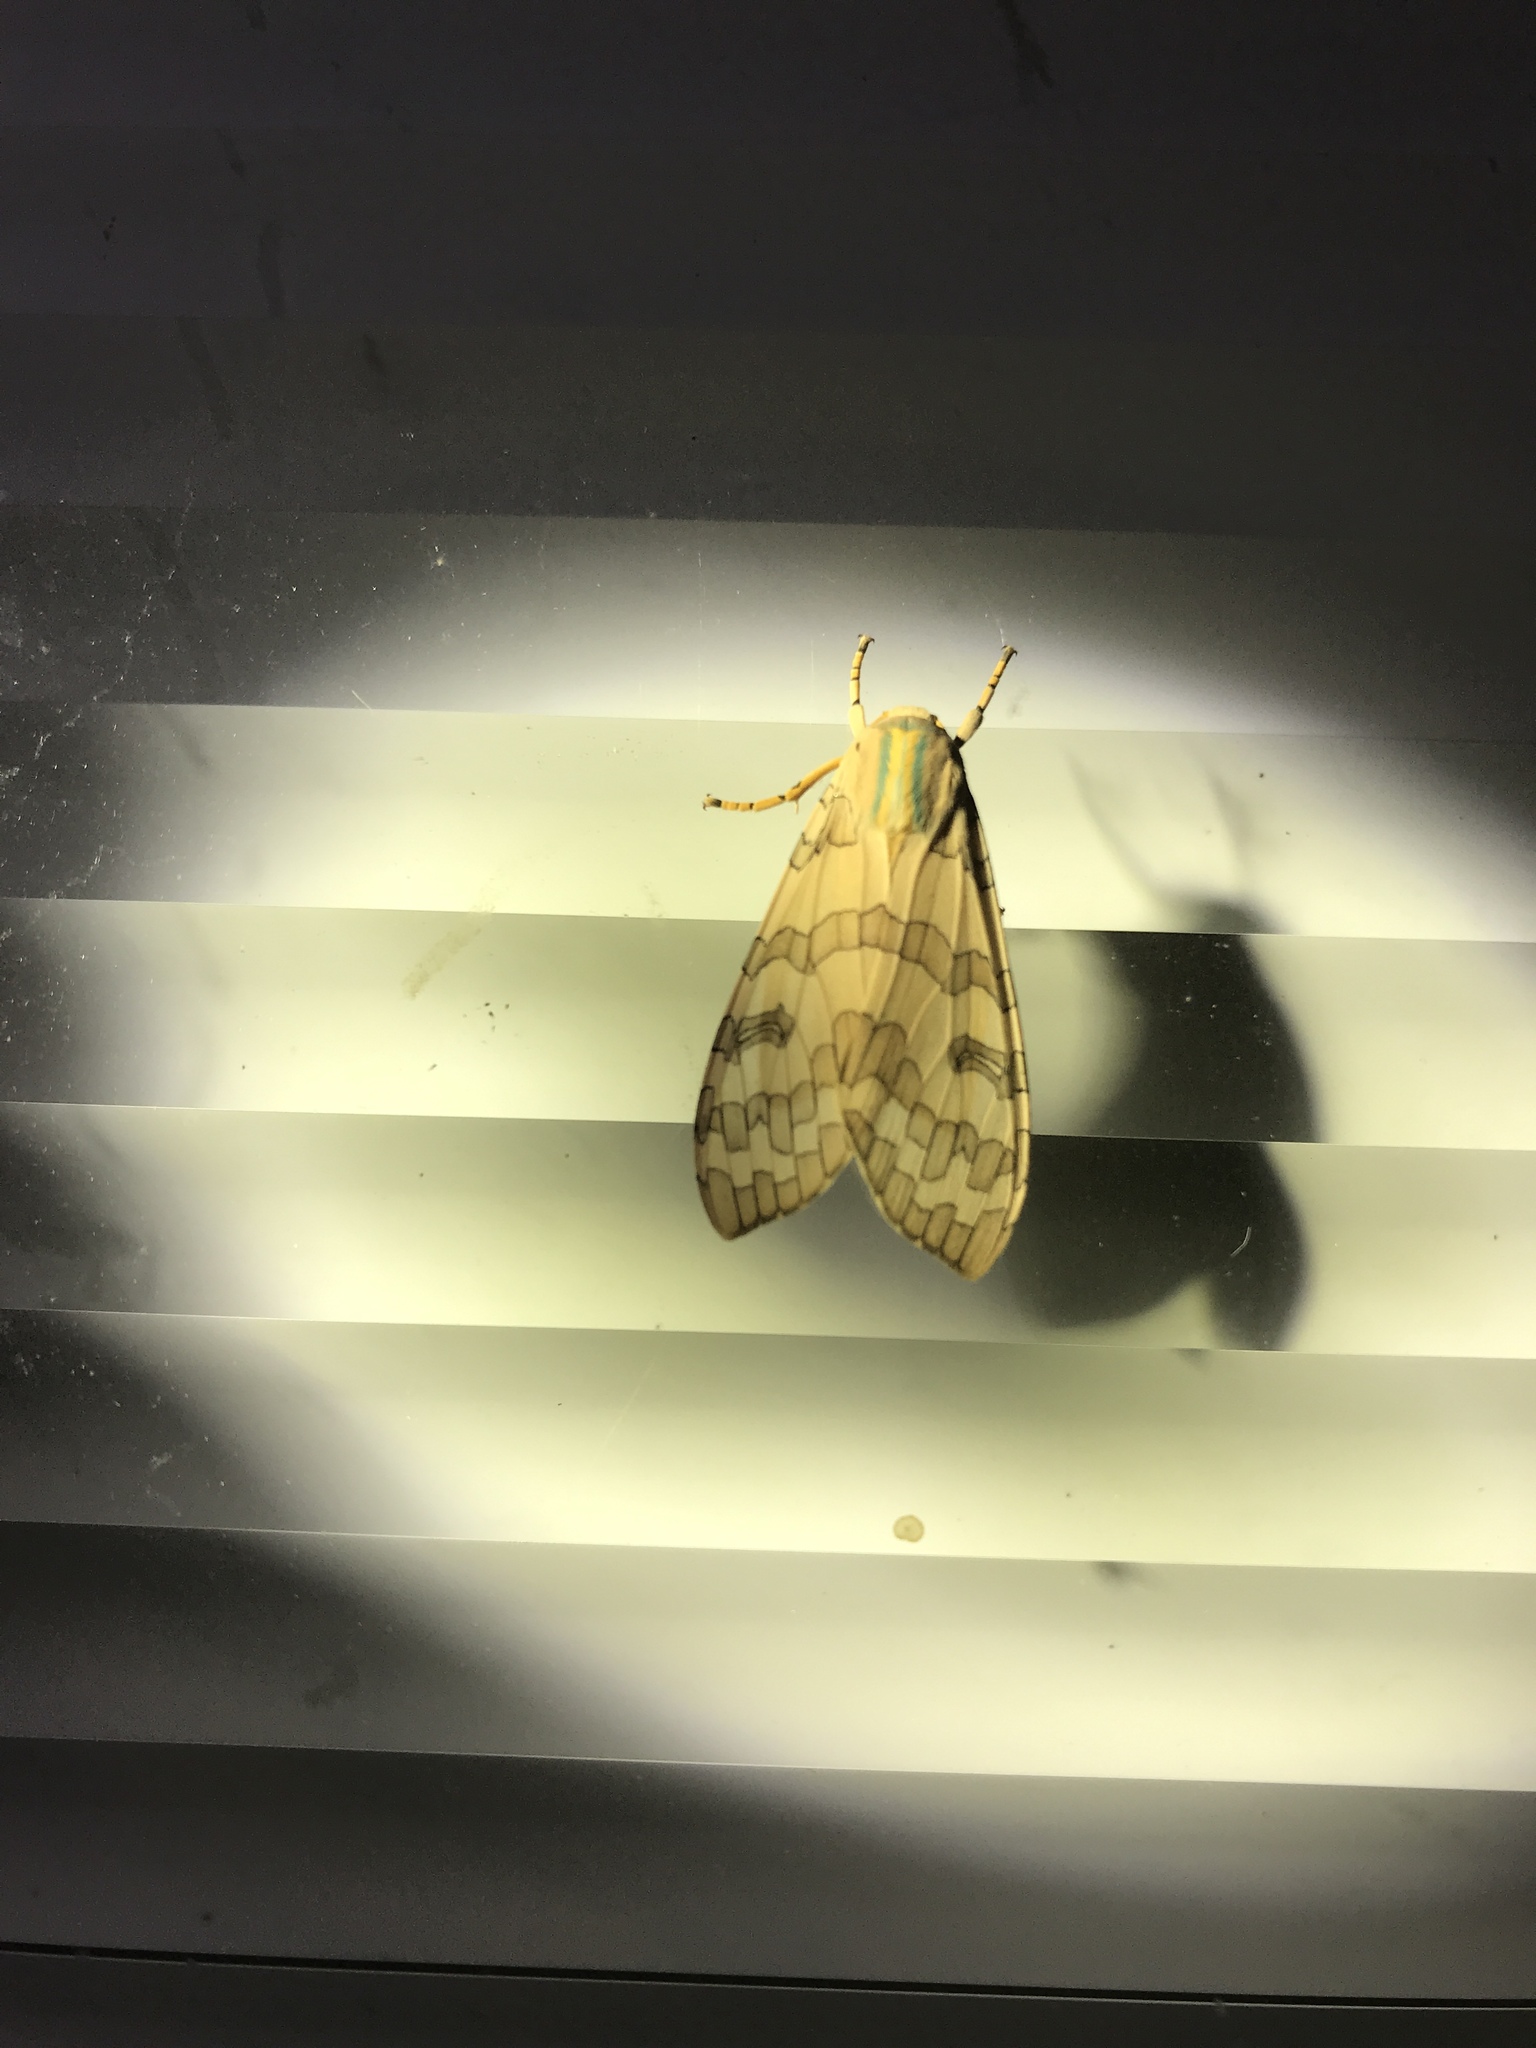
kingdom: Animalia
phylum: Arthropoda
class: Insecta
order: Lepidoptera
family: Erebidae
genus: Halysidota
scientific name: Halysidota
